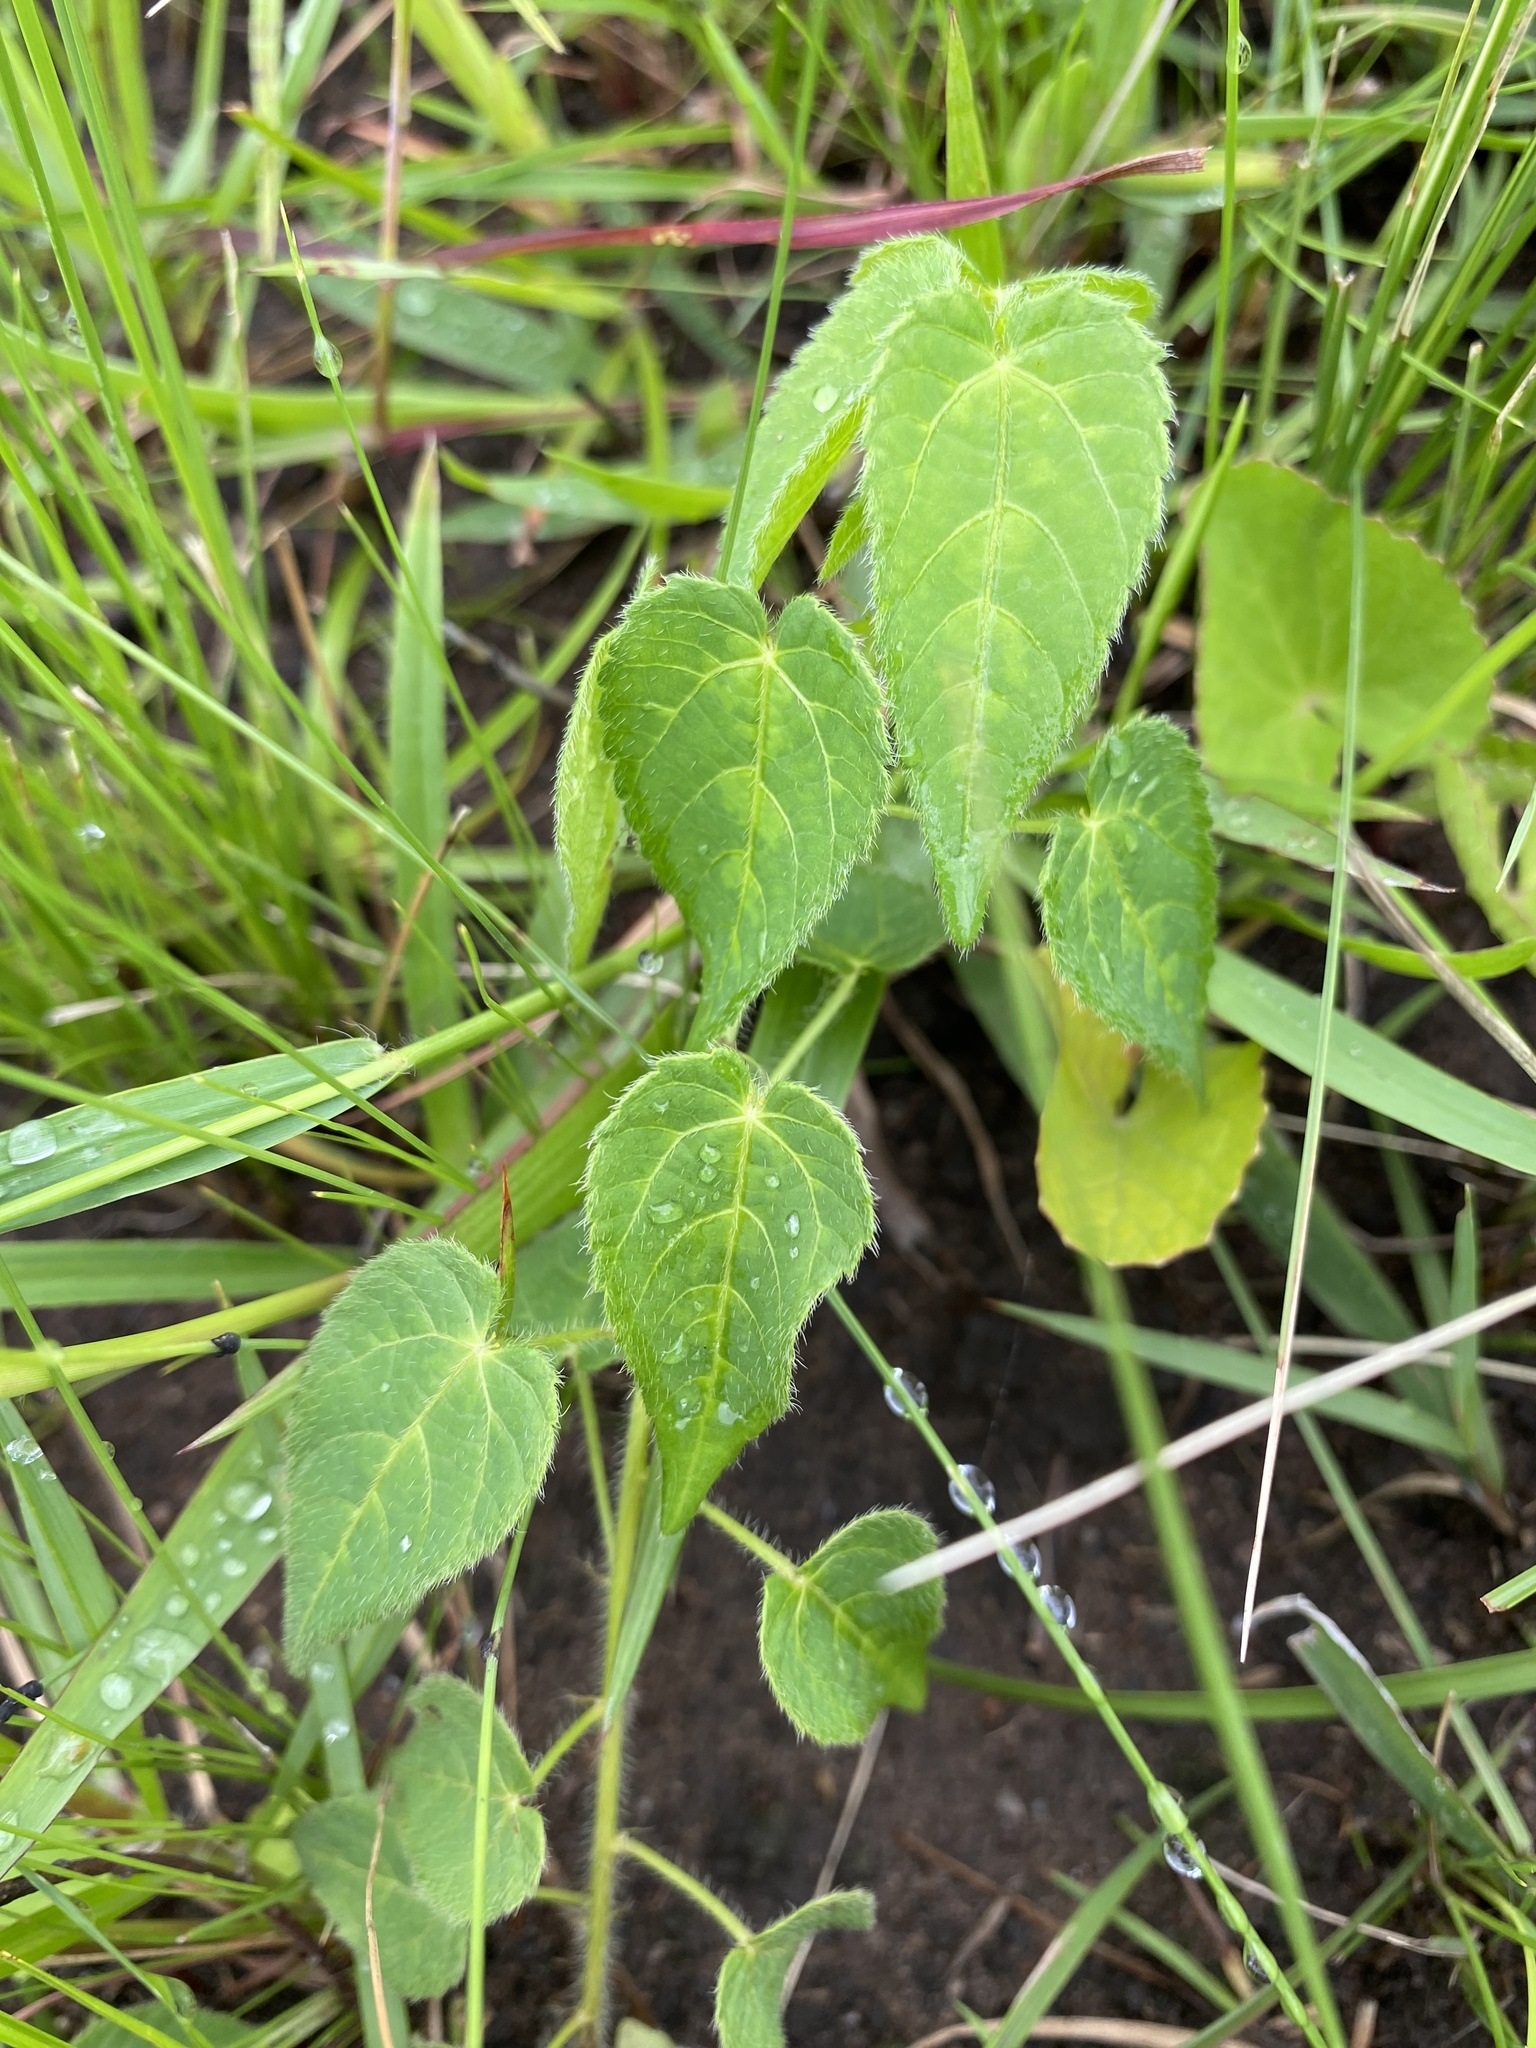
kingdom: Plantae
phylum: Tracheophyta
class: Magnoliopsida
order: Malpighiales
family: Euphorbiaceae
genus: Acalypha
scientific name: Acalypha petiolaris
